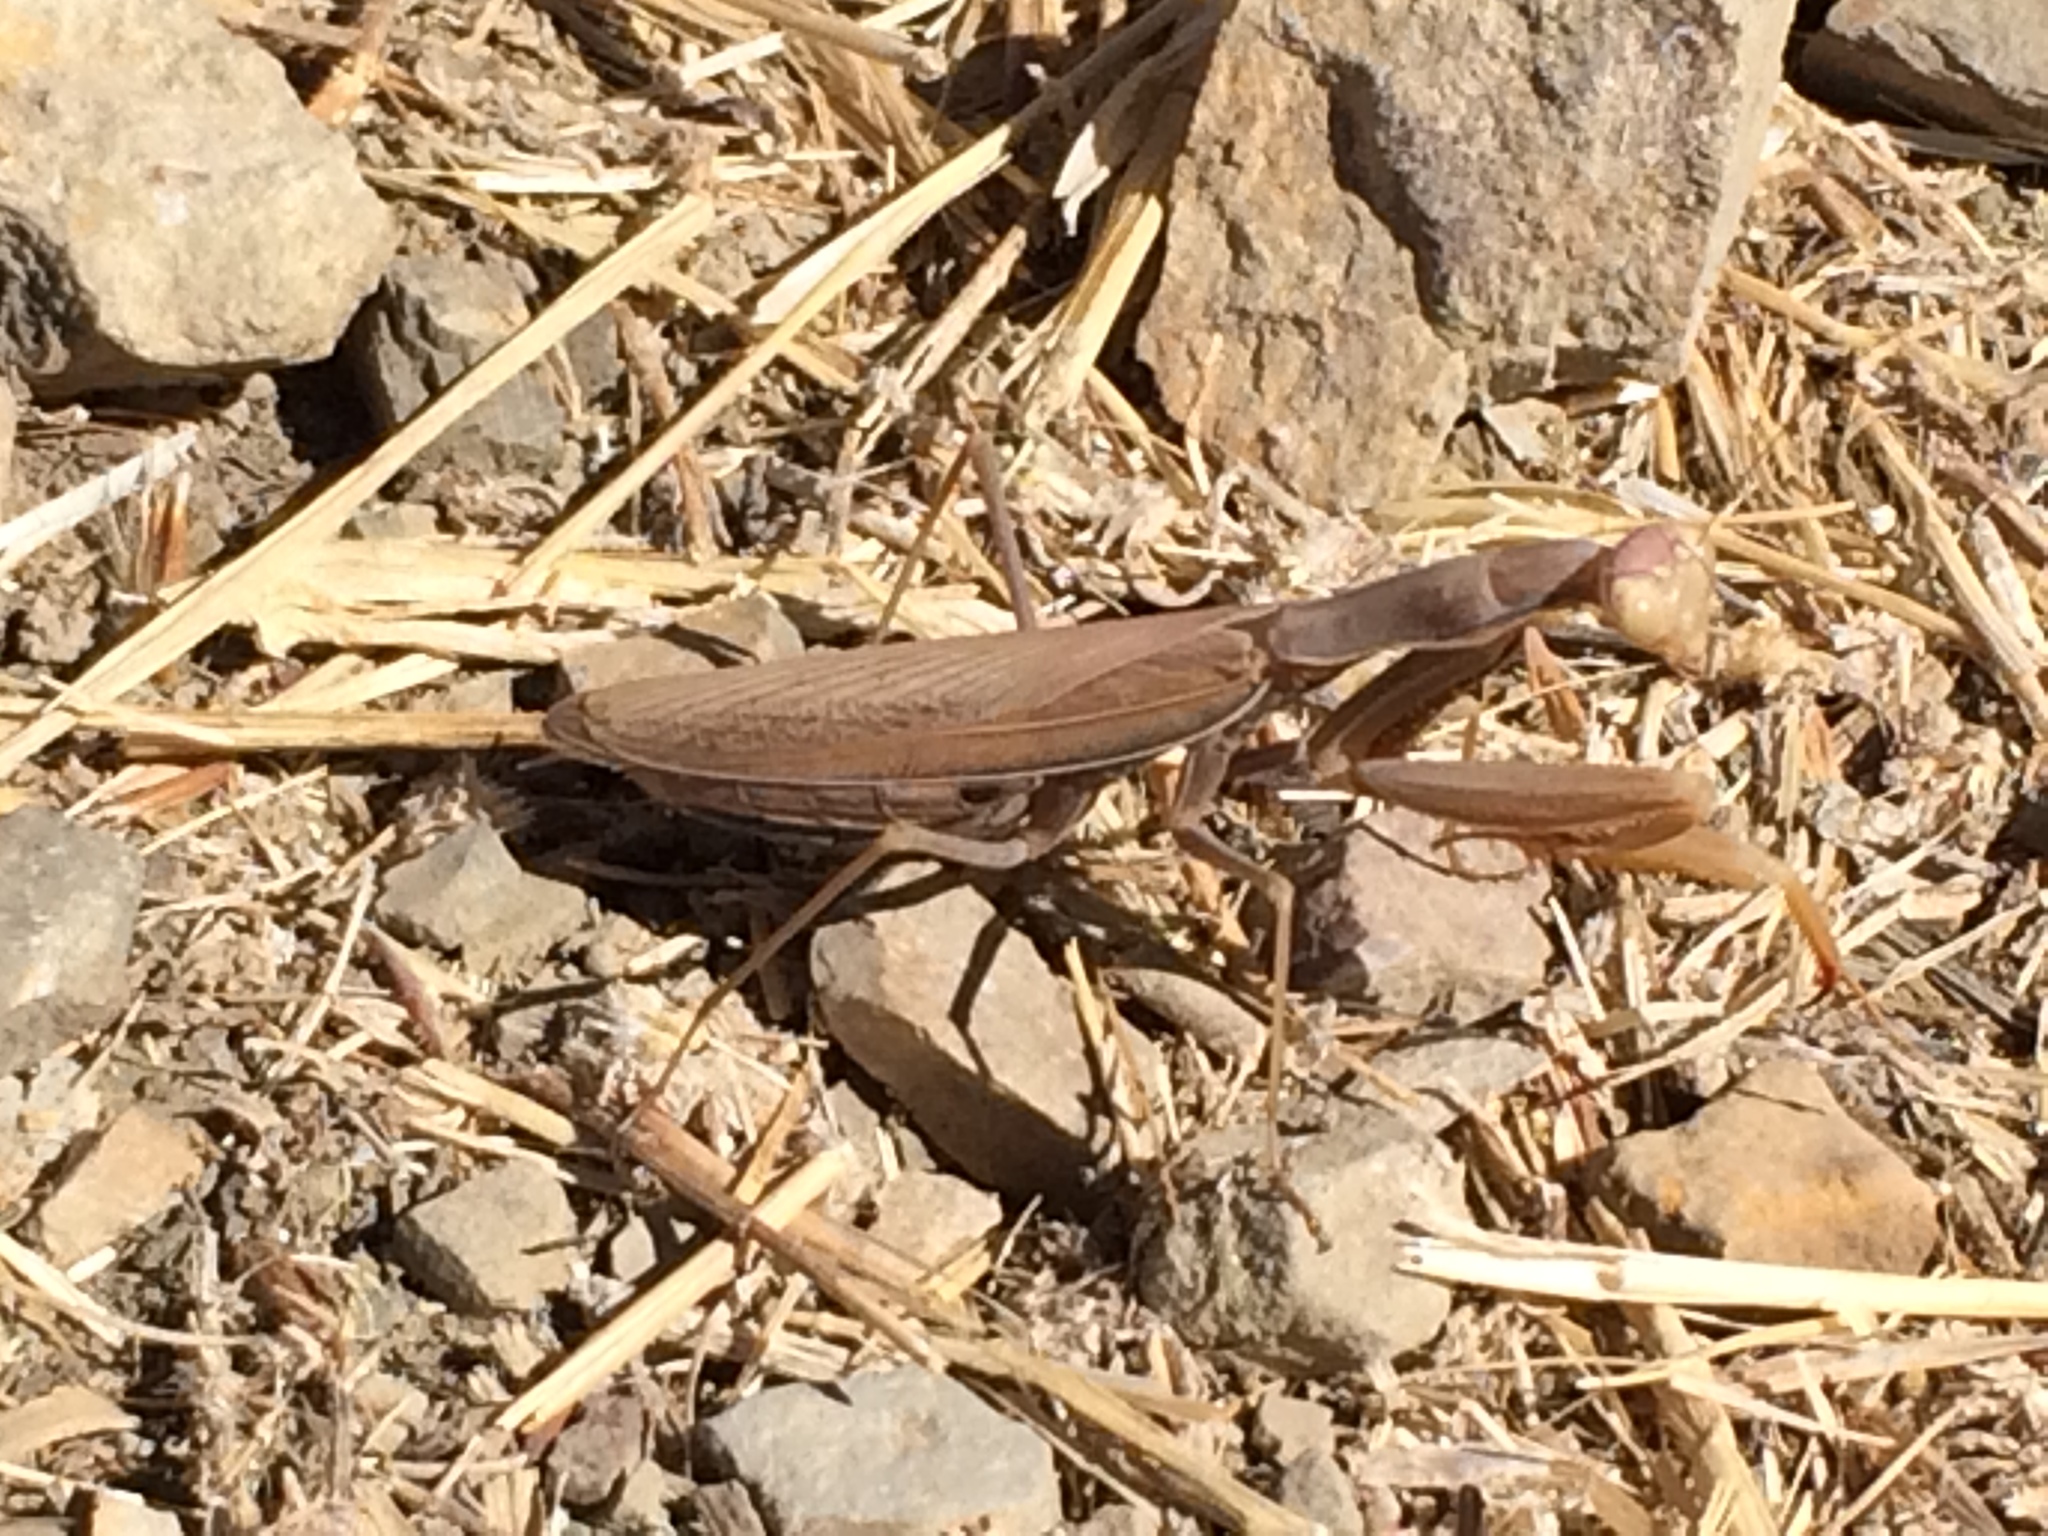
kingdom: Animalia
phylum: Arthropoda
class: Insecta
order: Mantodea
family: Mantidae
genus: Mantis
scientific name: Mantis religiosa
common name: Praying mantis
